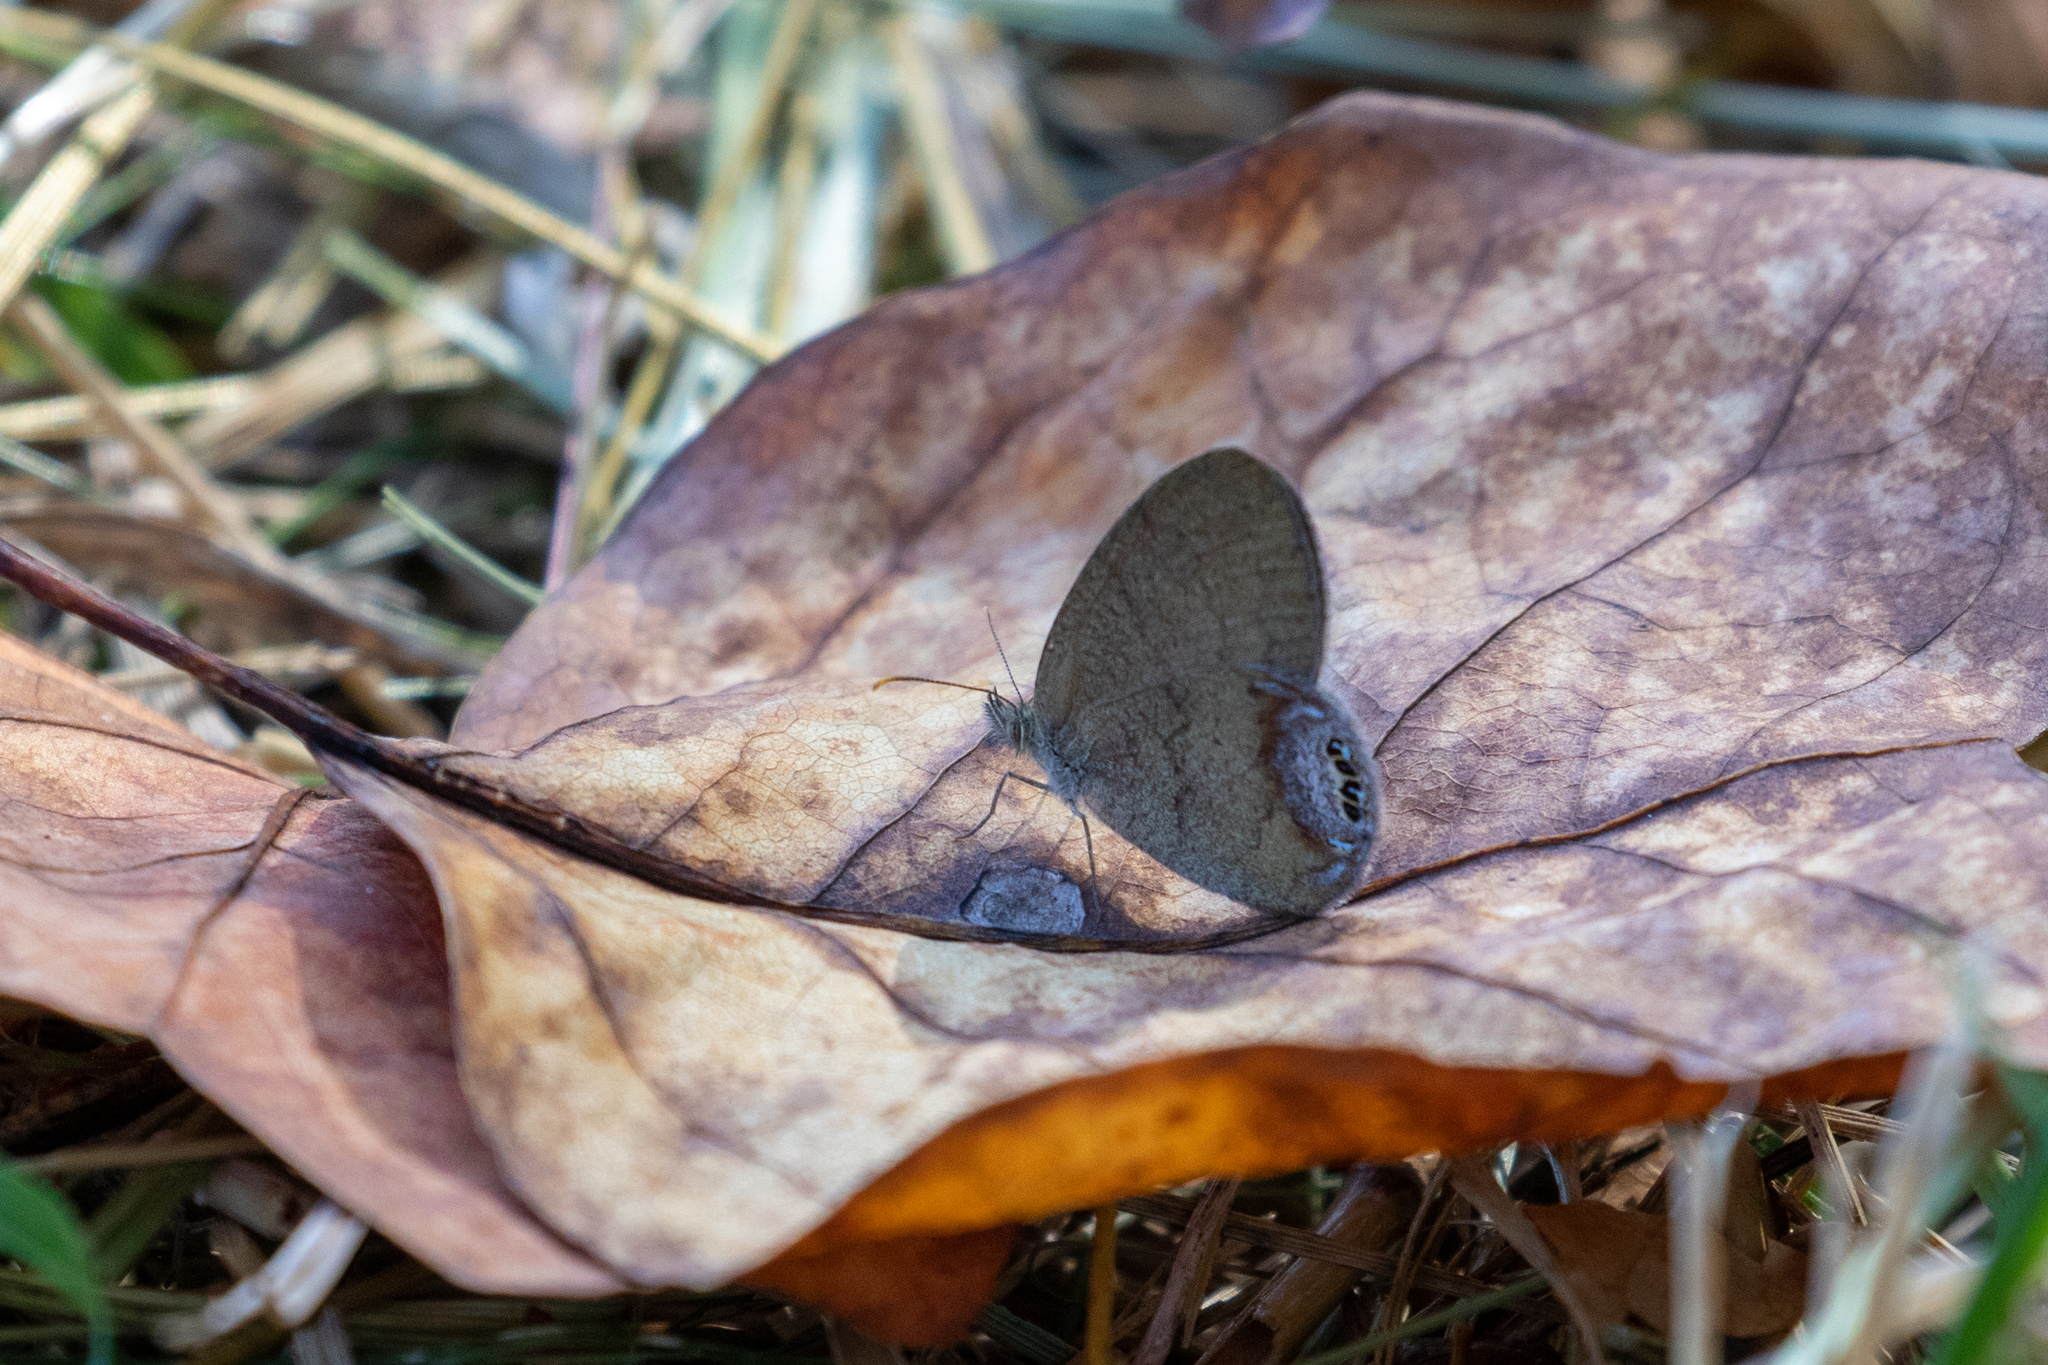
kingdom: Animalia
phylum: Arthropoda
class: Insecta
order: Lepidoptera
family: Nymphalidae
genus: Euptychia
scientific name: Euptychia cornelius
